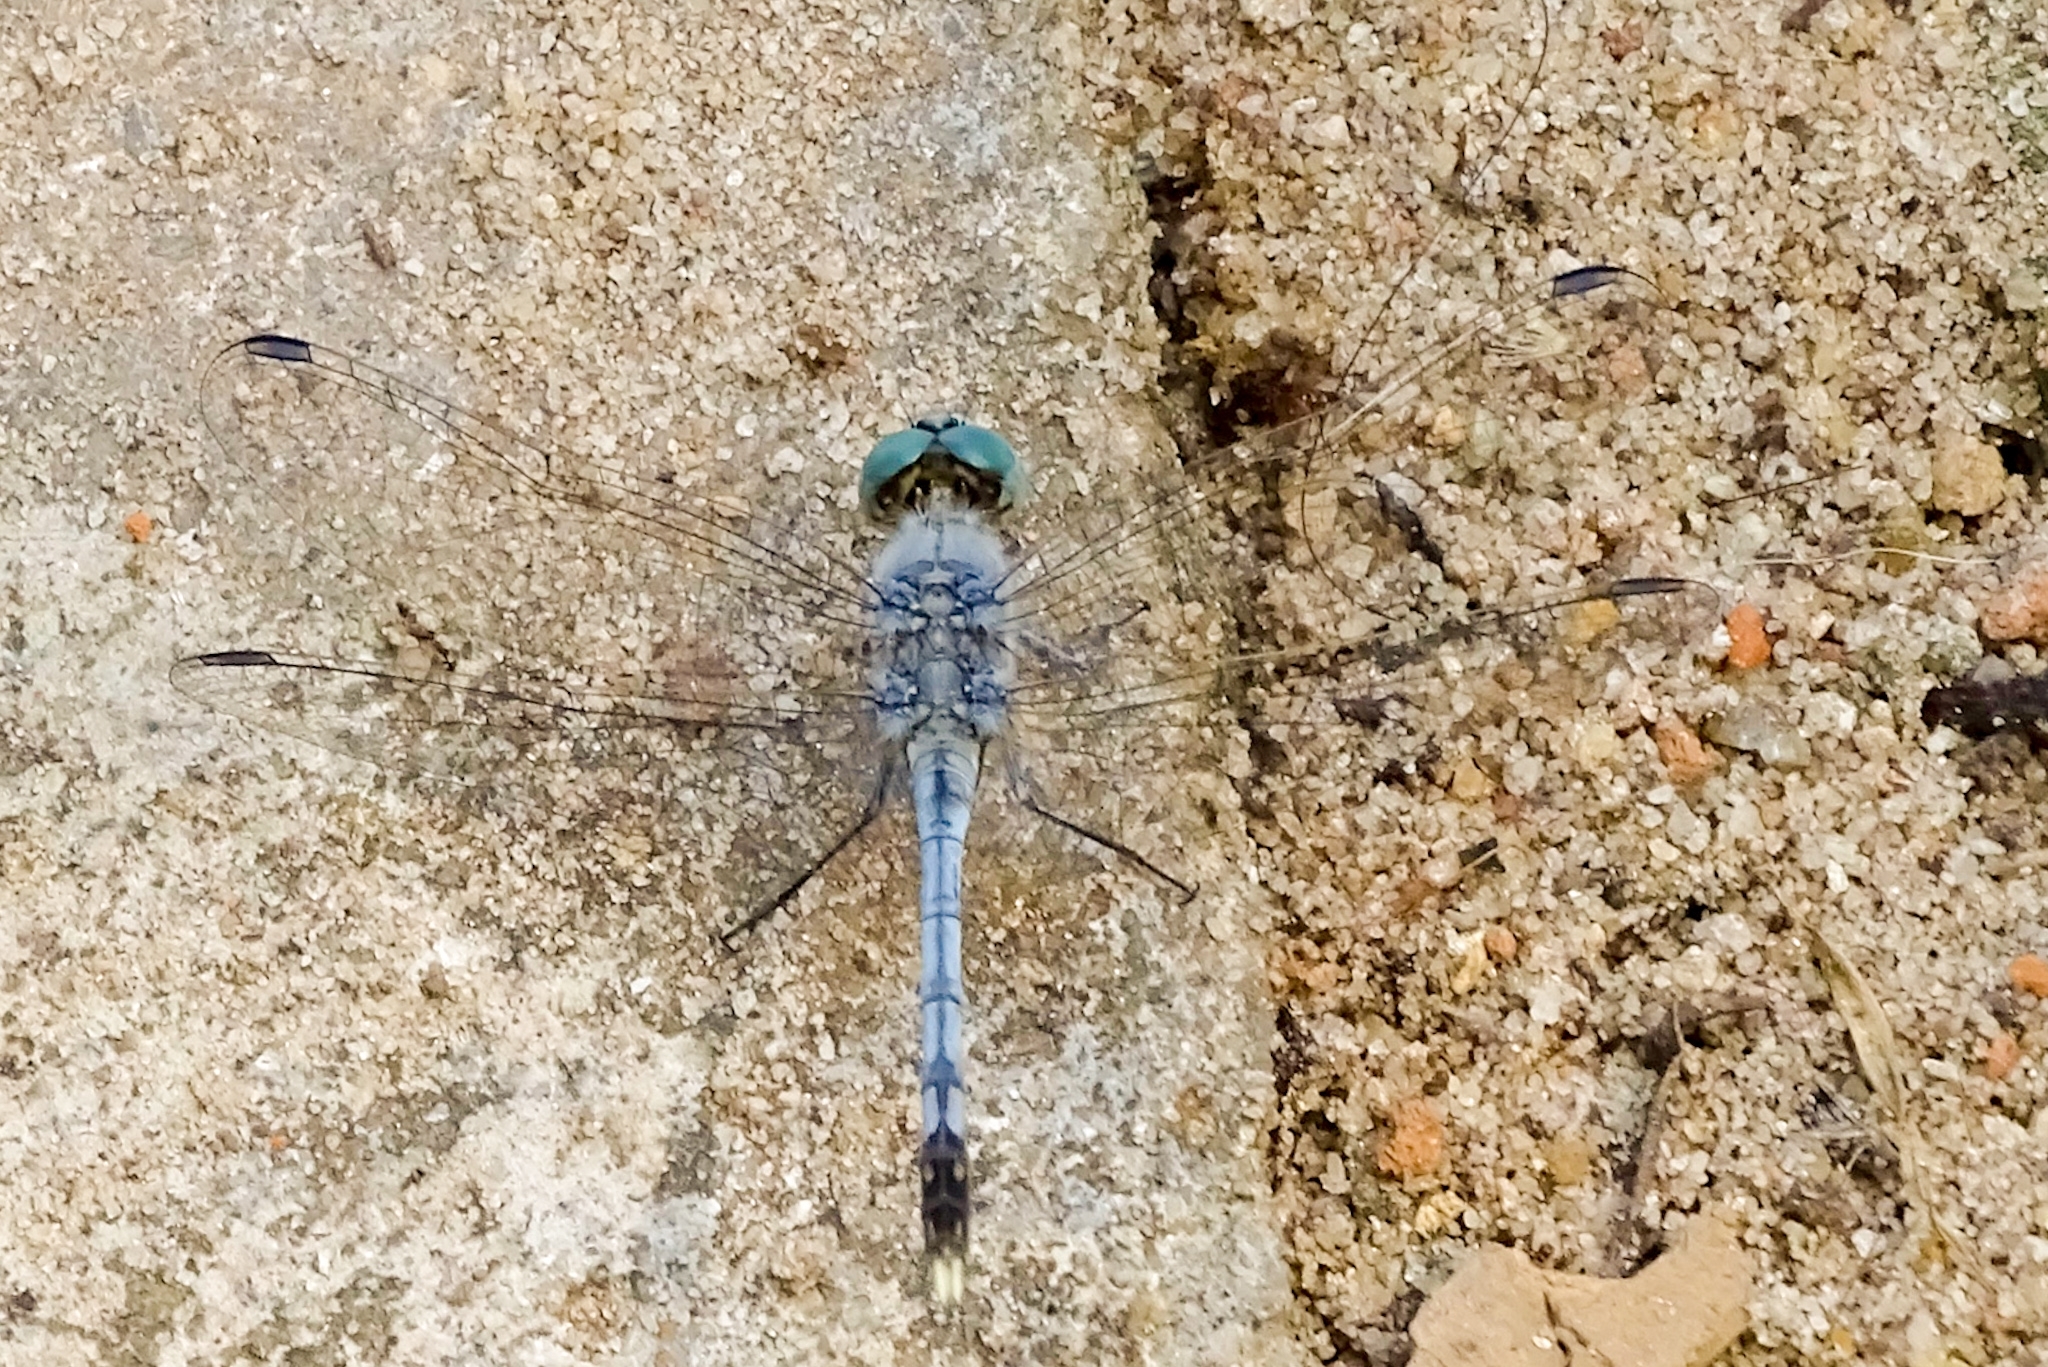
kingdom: Animalia
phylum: Arthropoda
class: Insecta
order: Odonata
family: Libellulidae
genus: Diplacodes
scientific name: Diplacodes trivialis
